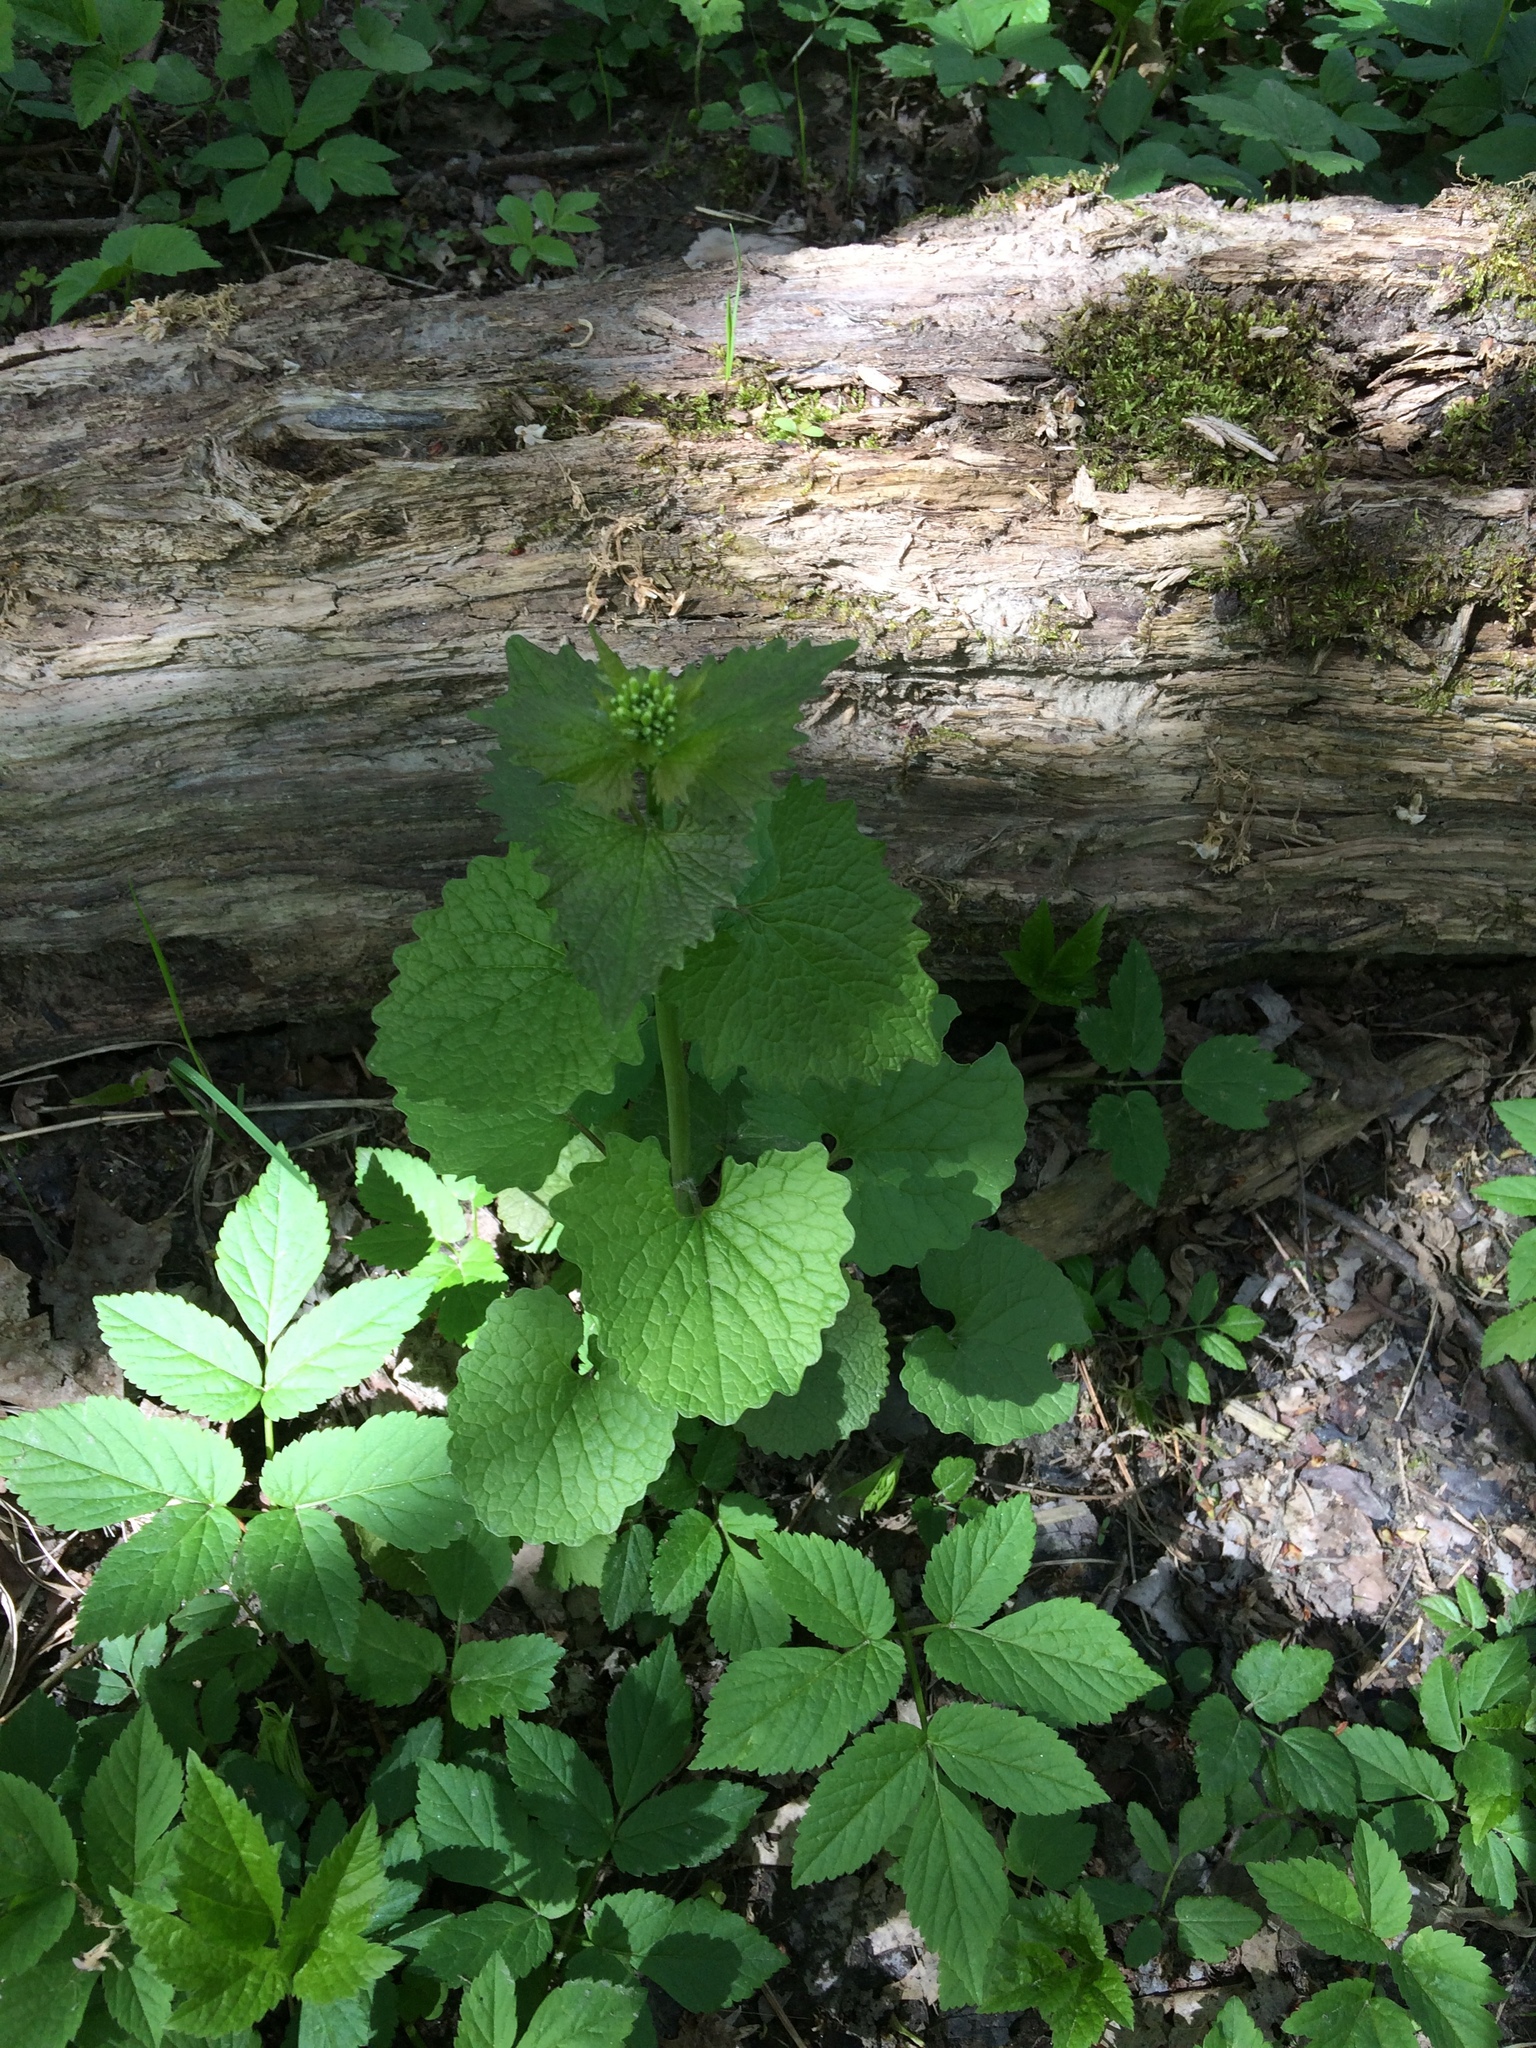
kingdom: Plantae
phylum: Tracheophyta
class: Magnoliopsida
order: Brassicales
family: Brassicaceae
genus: Alliaria
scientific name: Alliaria petiolata
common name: Garlic mustard
